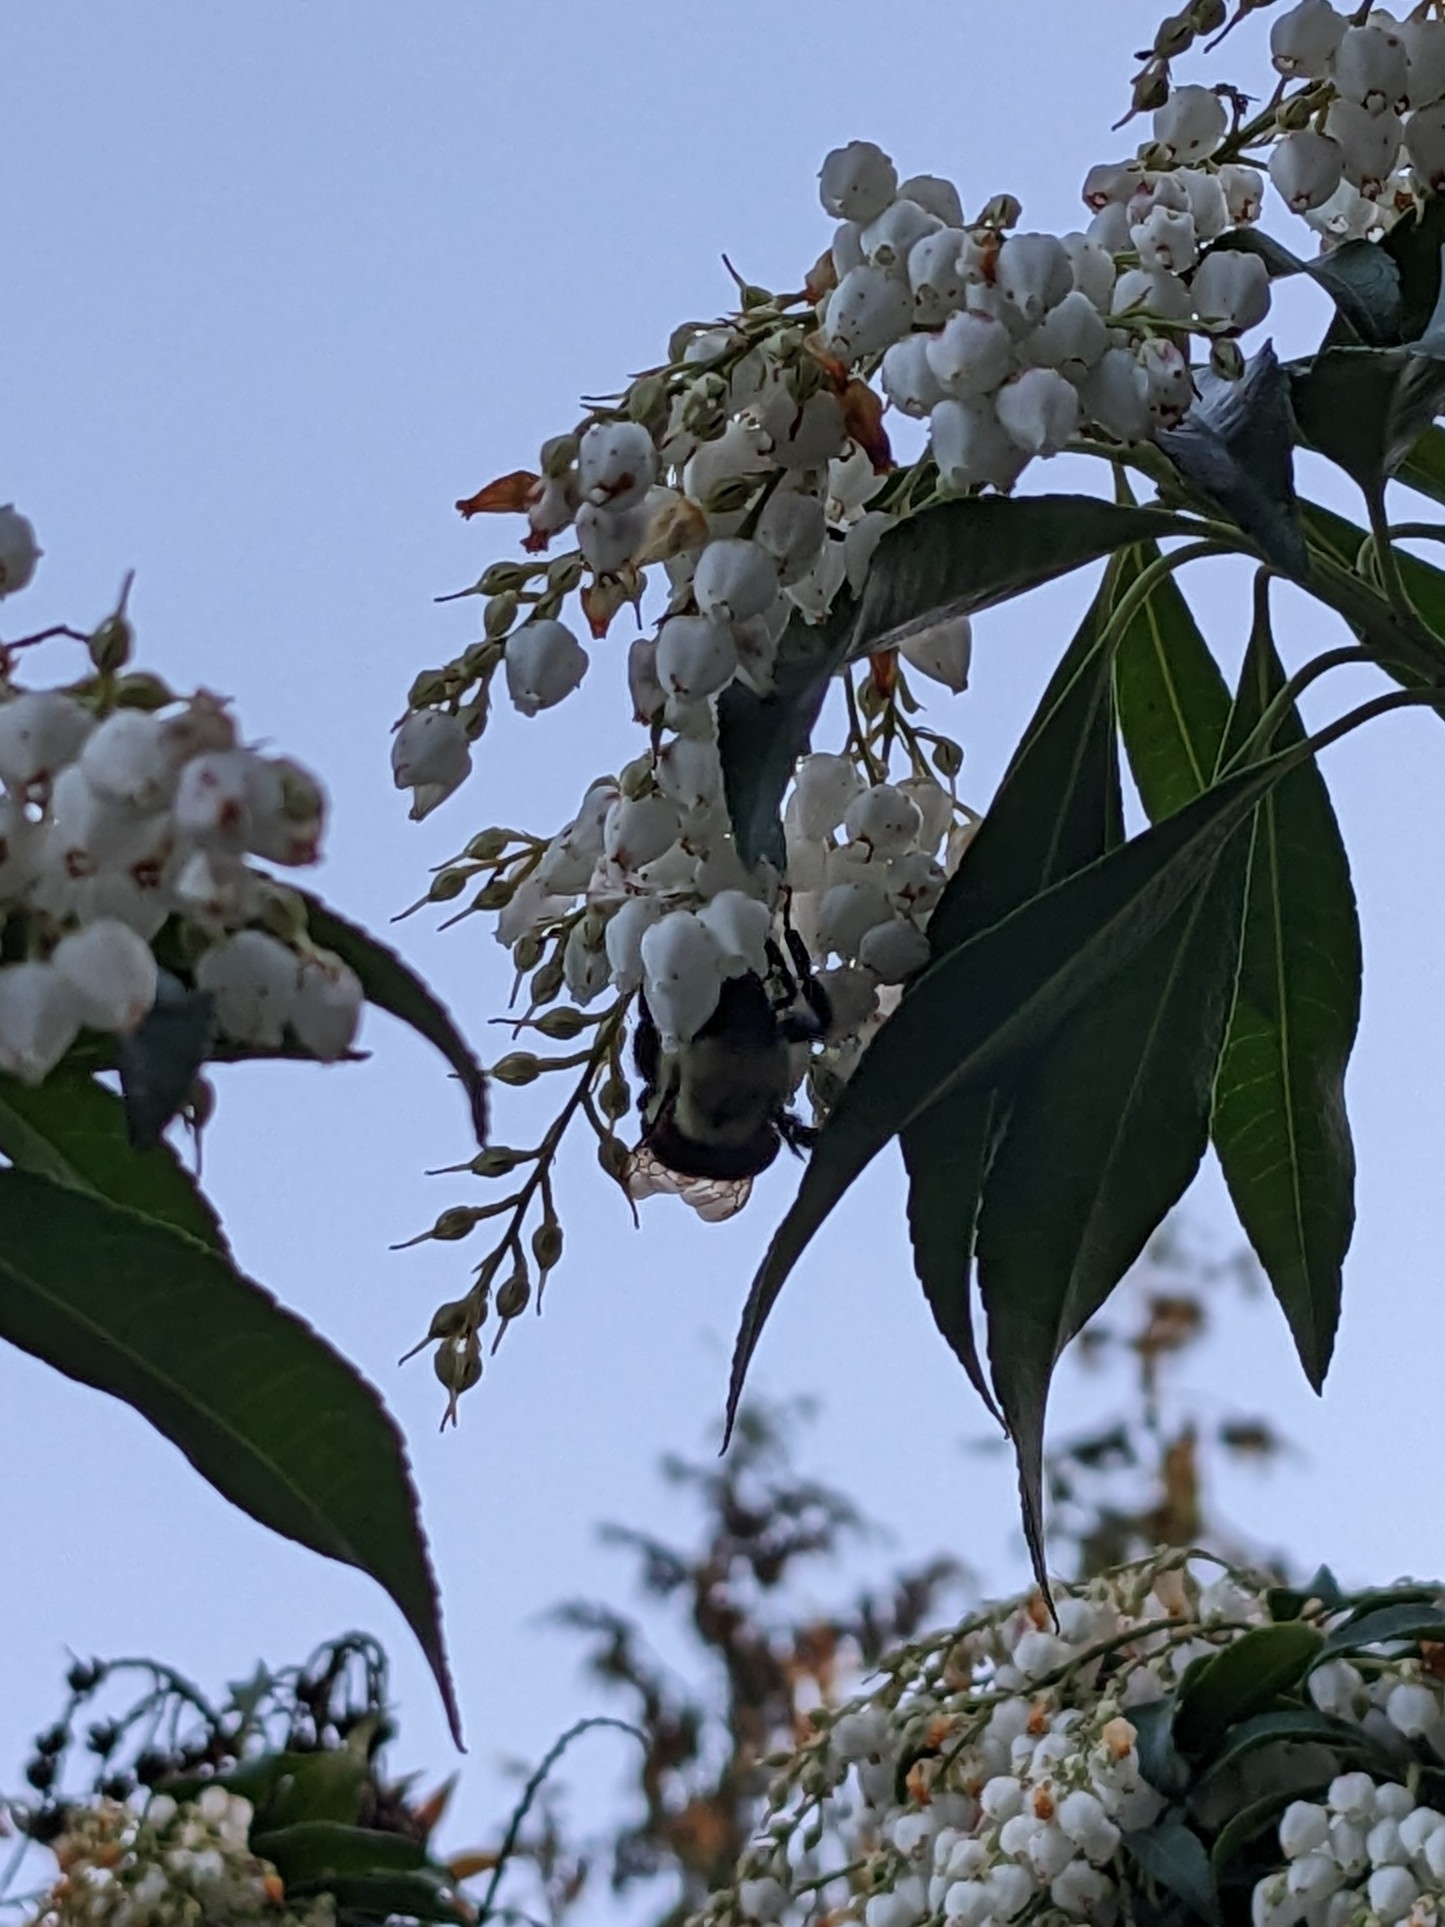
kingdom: Animalia
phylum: Arthropoda
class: Insecta
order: Hymenoptera
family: Apidae
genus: Bombus
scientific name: Bombus impatiens
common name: Common eastern bumble bee
